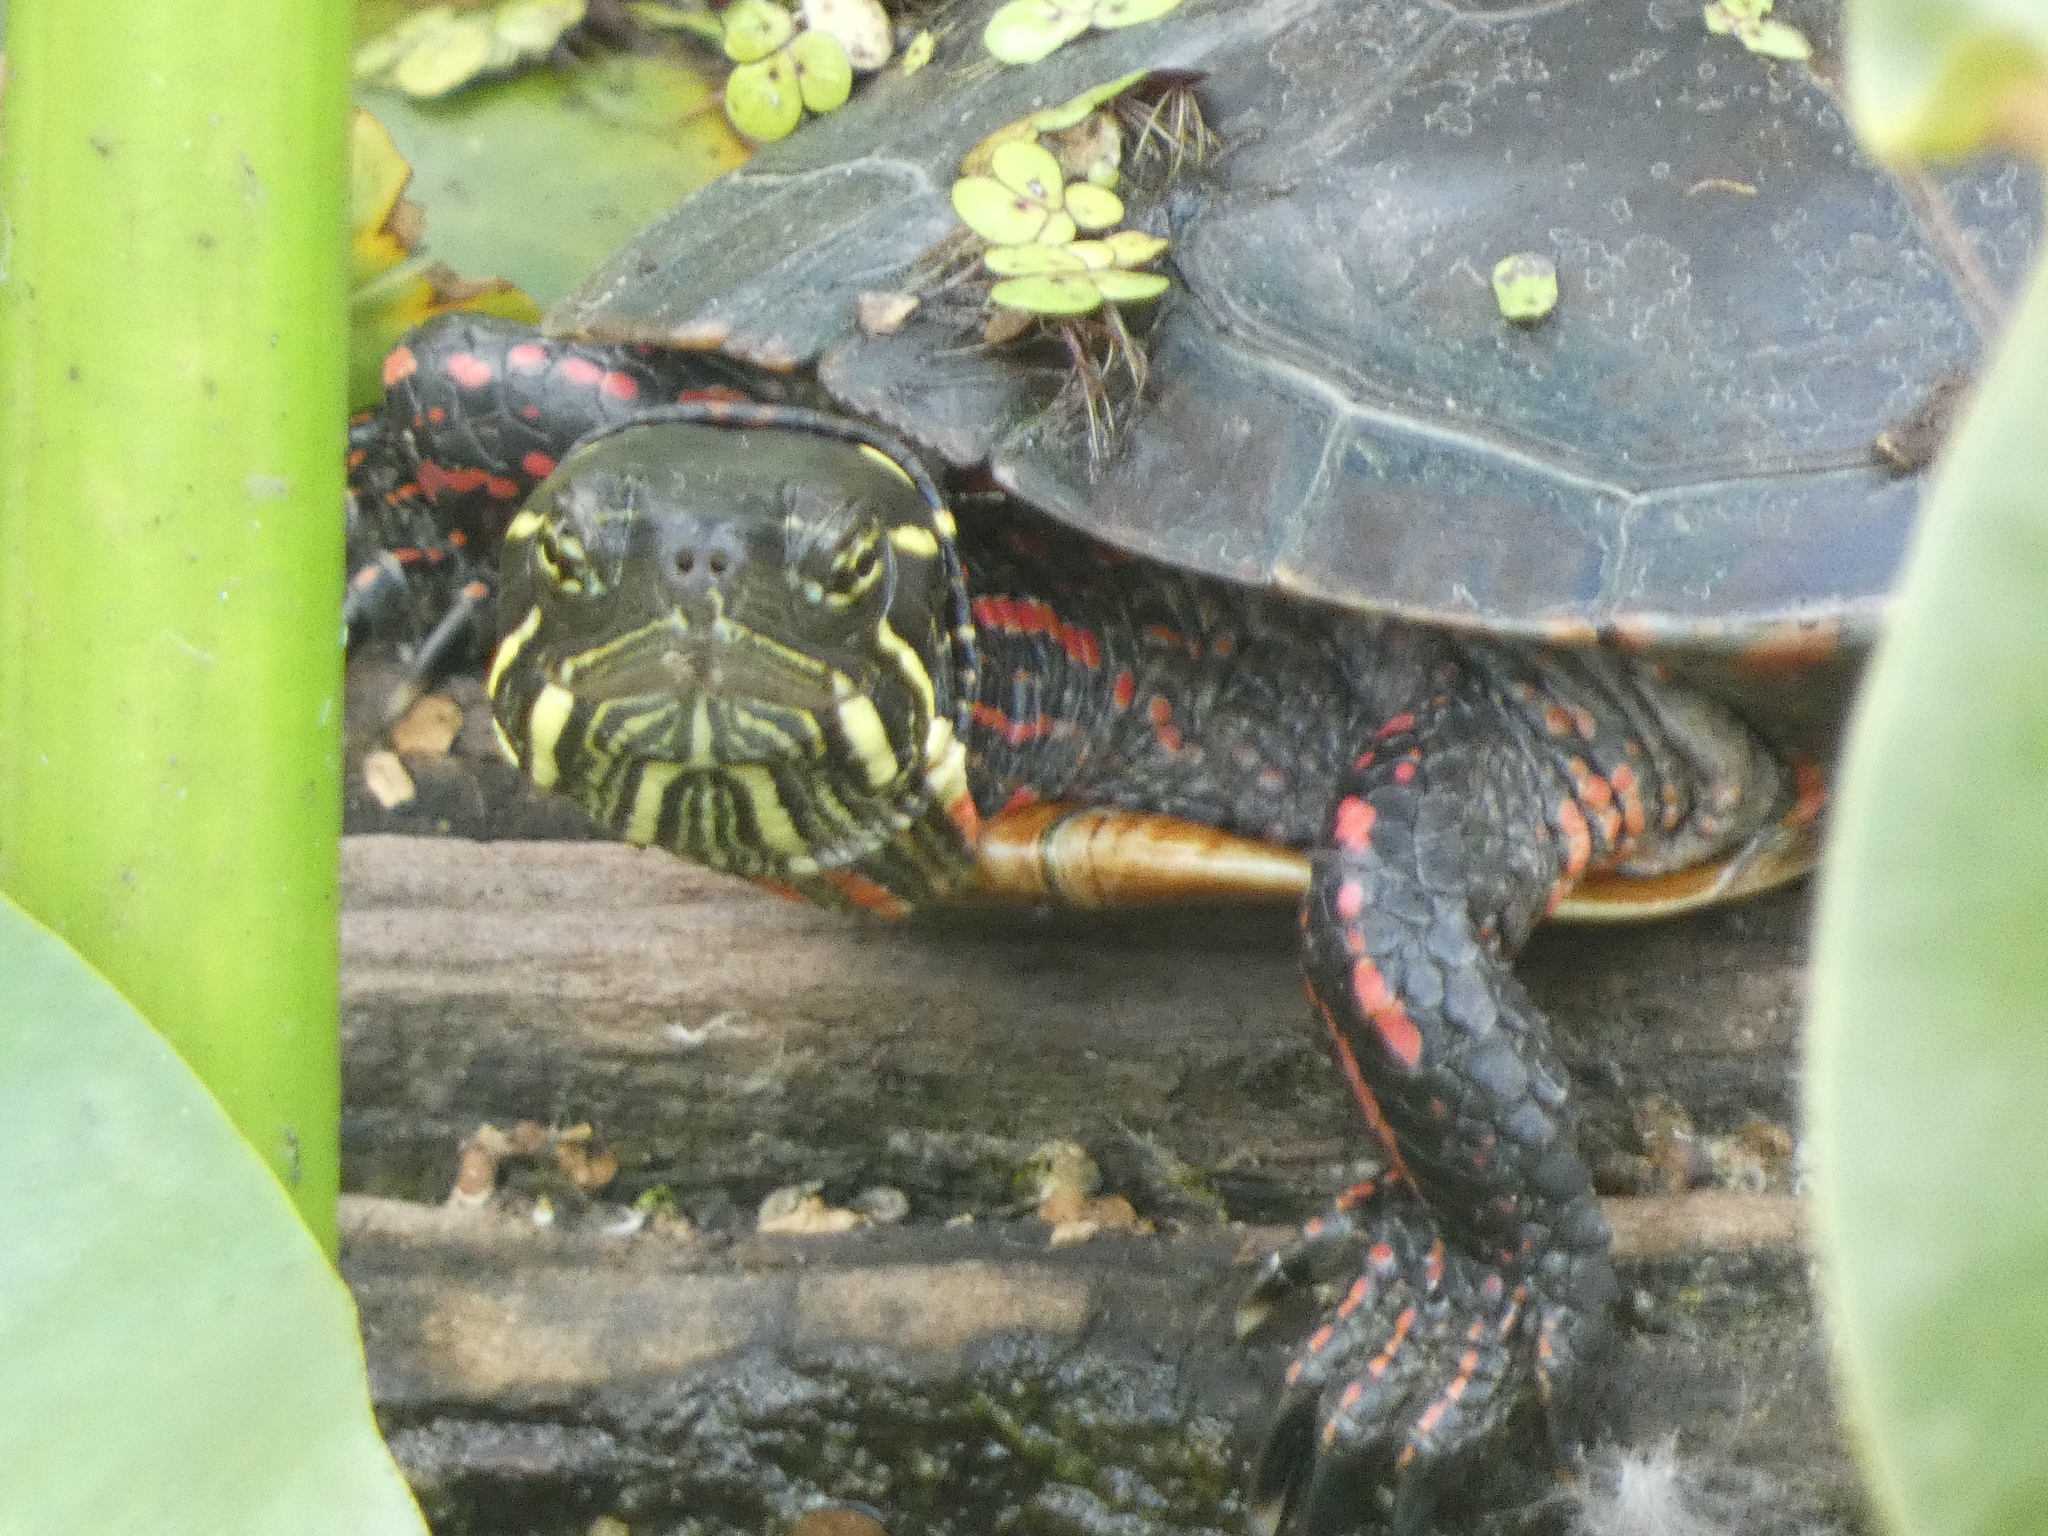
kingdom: Animalia
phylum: Chordata
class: Testudines
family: Emydidae
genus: Chrysemys
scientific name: Chrysemys picta
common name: Painted turtle
